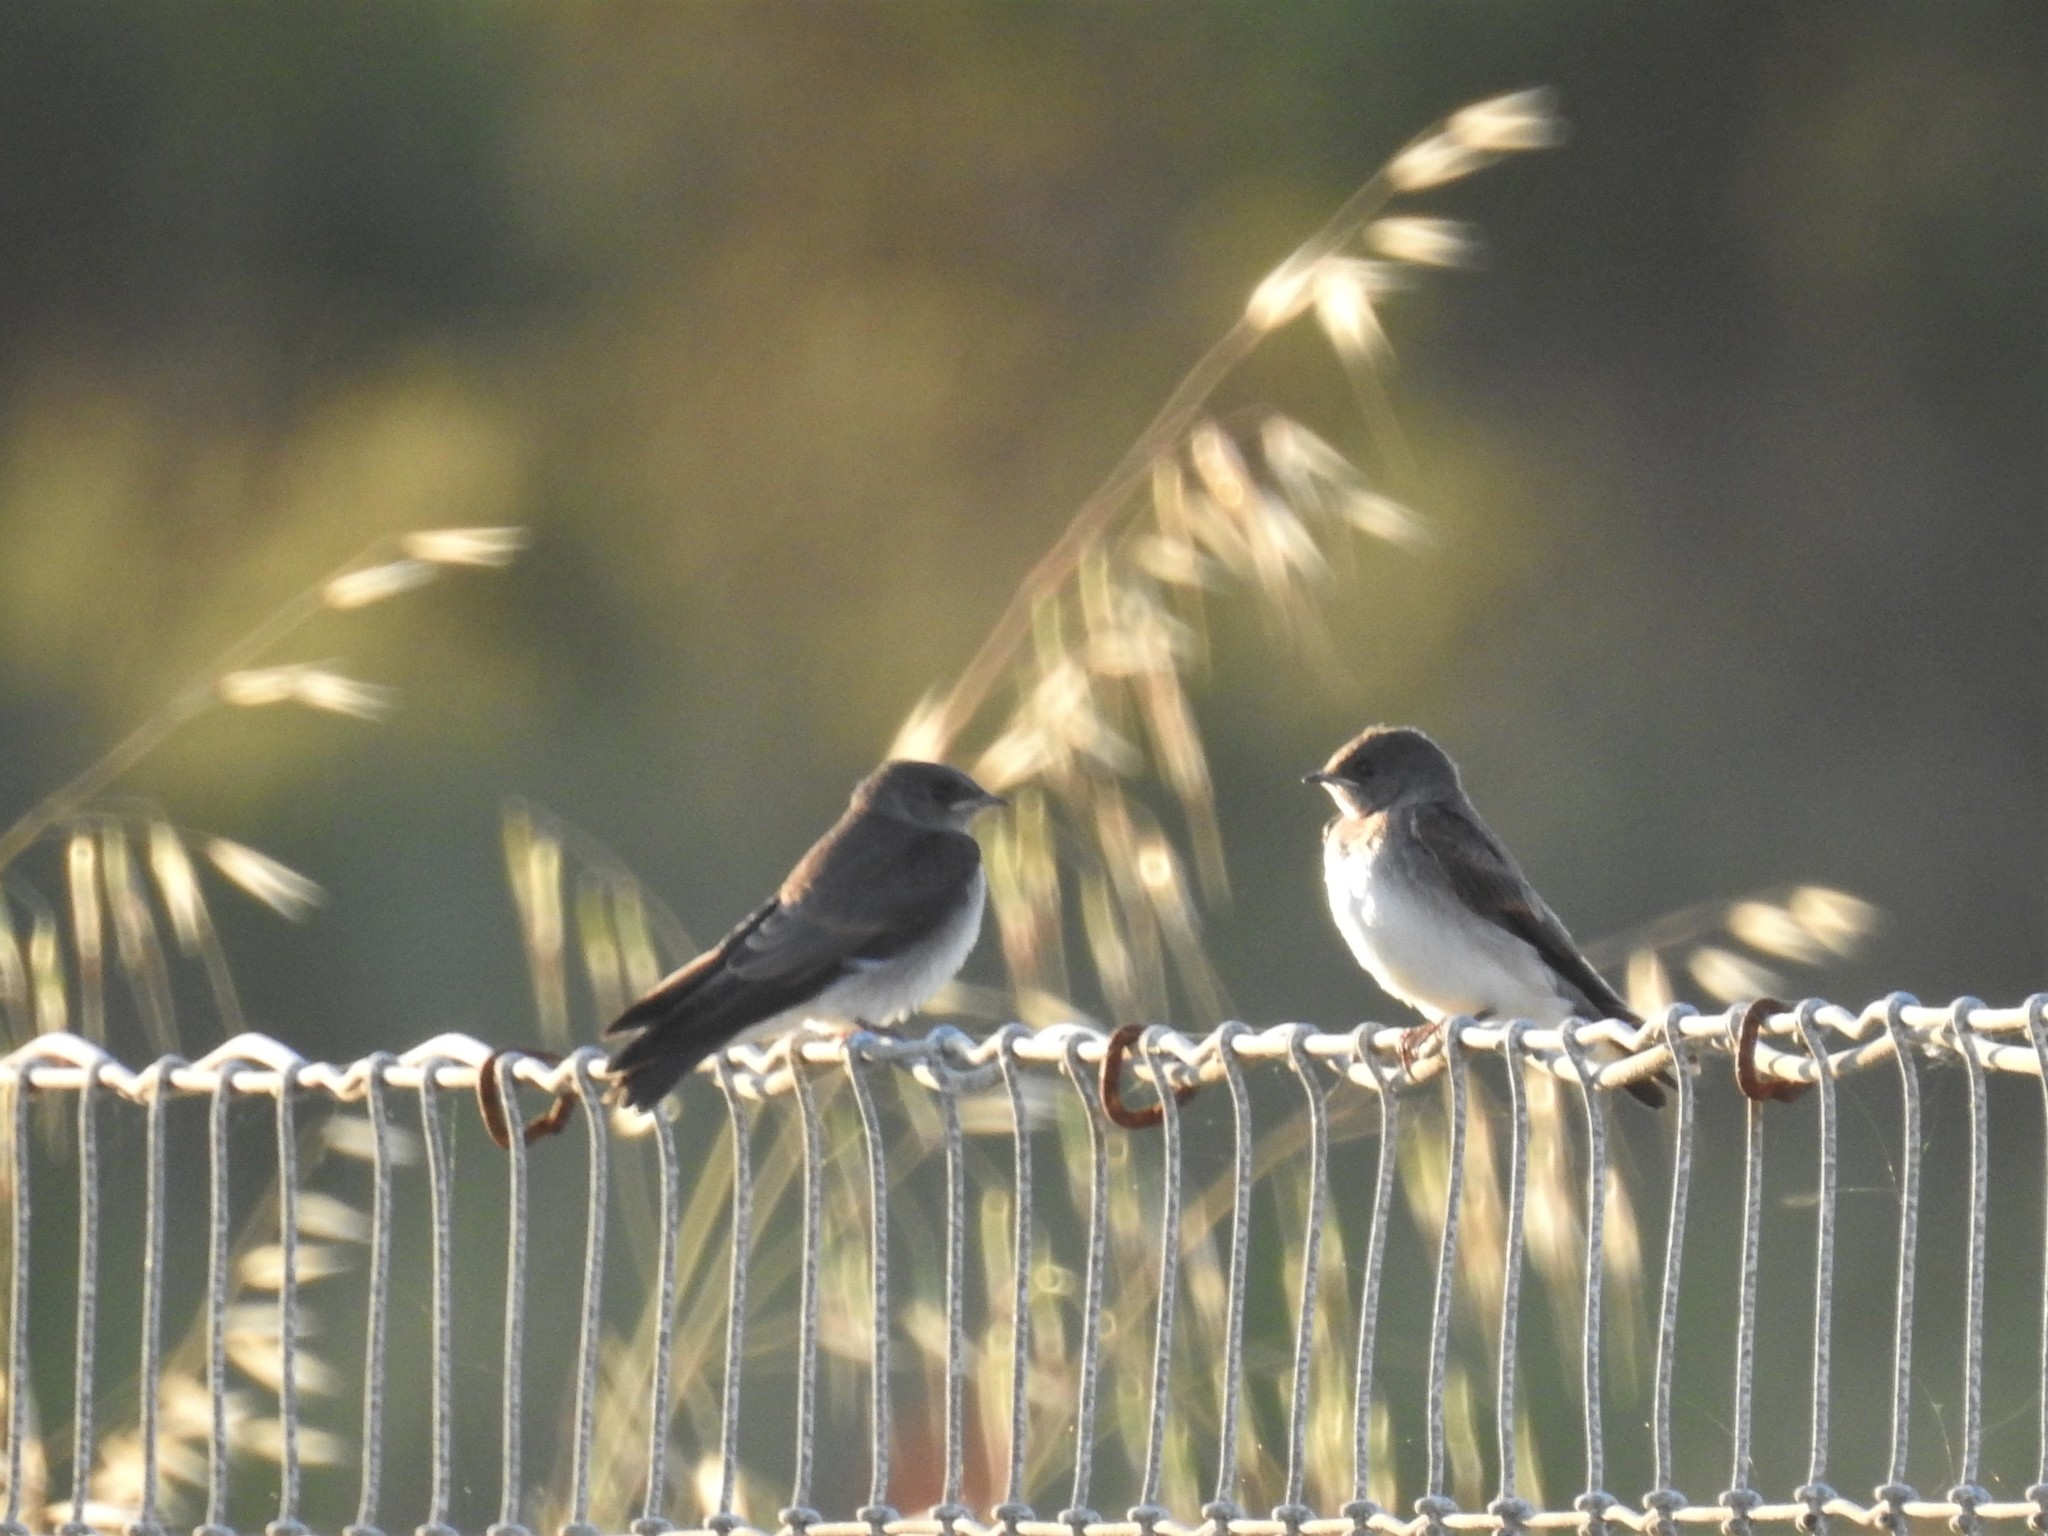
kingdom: Animalia
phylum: Chordata
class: Aves
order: Passeriformes
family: Hirundinidae
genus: Stelgidopteryx
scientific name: Stelgidopteryx serripennis
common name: Northern rough-winged swallow
